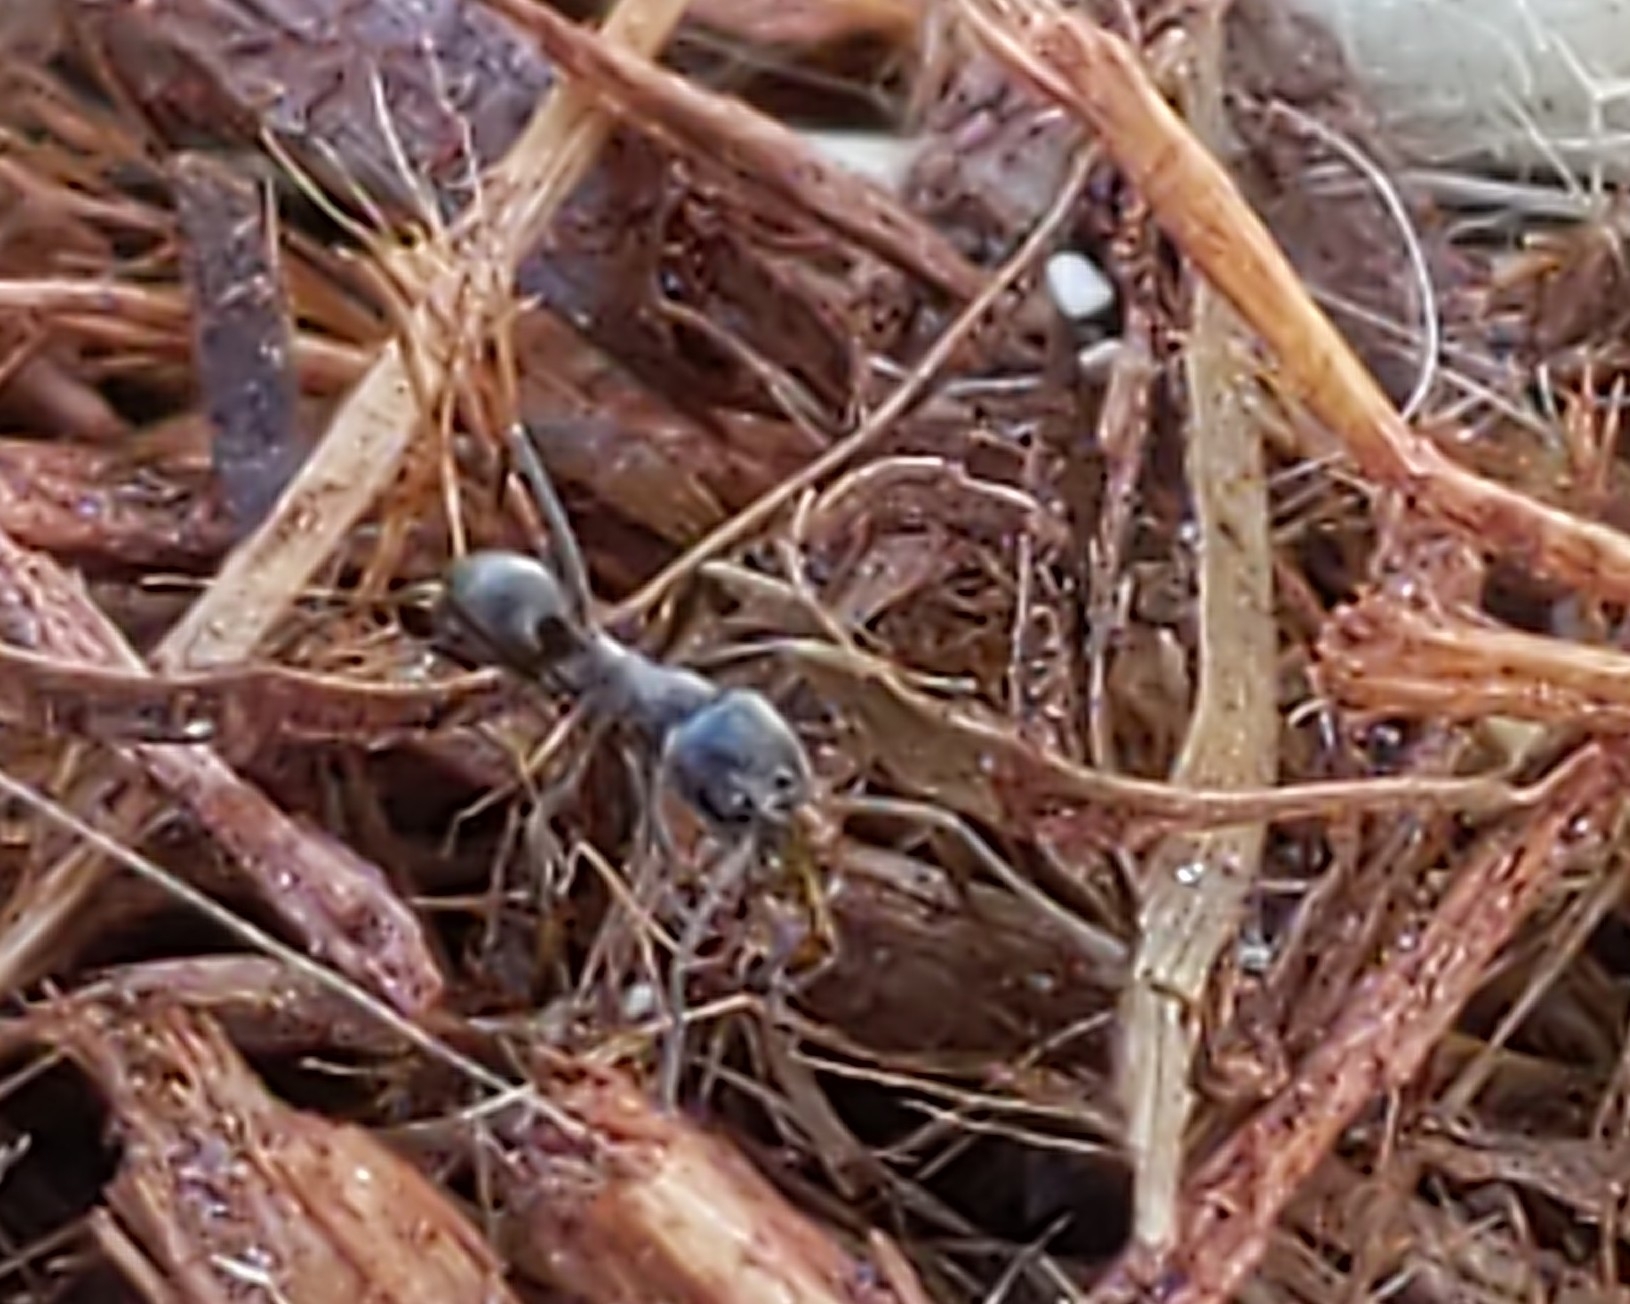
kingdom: Animalia
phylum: Arthropoda
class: Insecta
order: Hymenoptera
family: Formicidae
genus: Dorymyrmex
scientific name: Dorymyrmex
